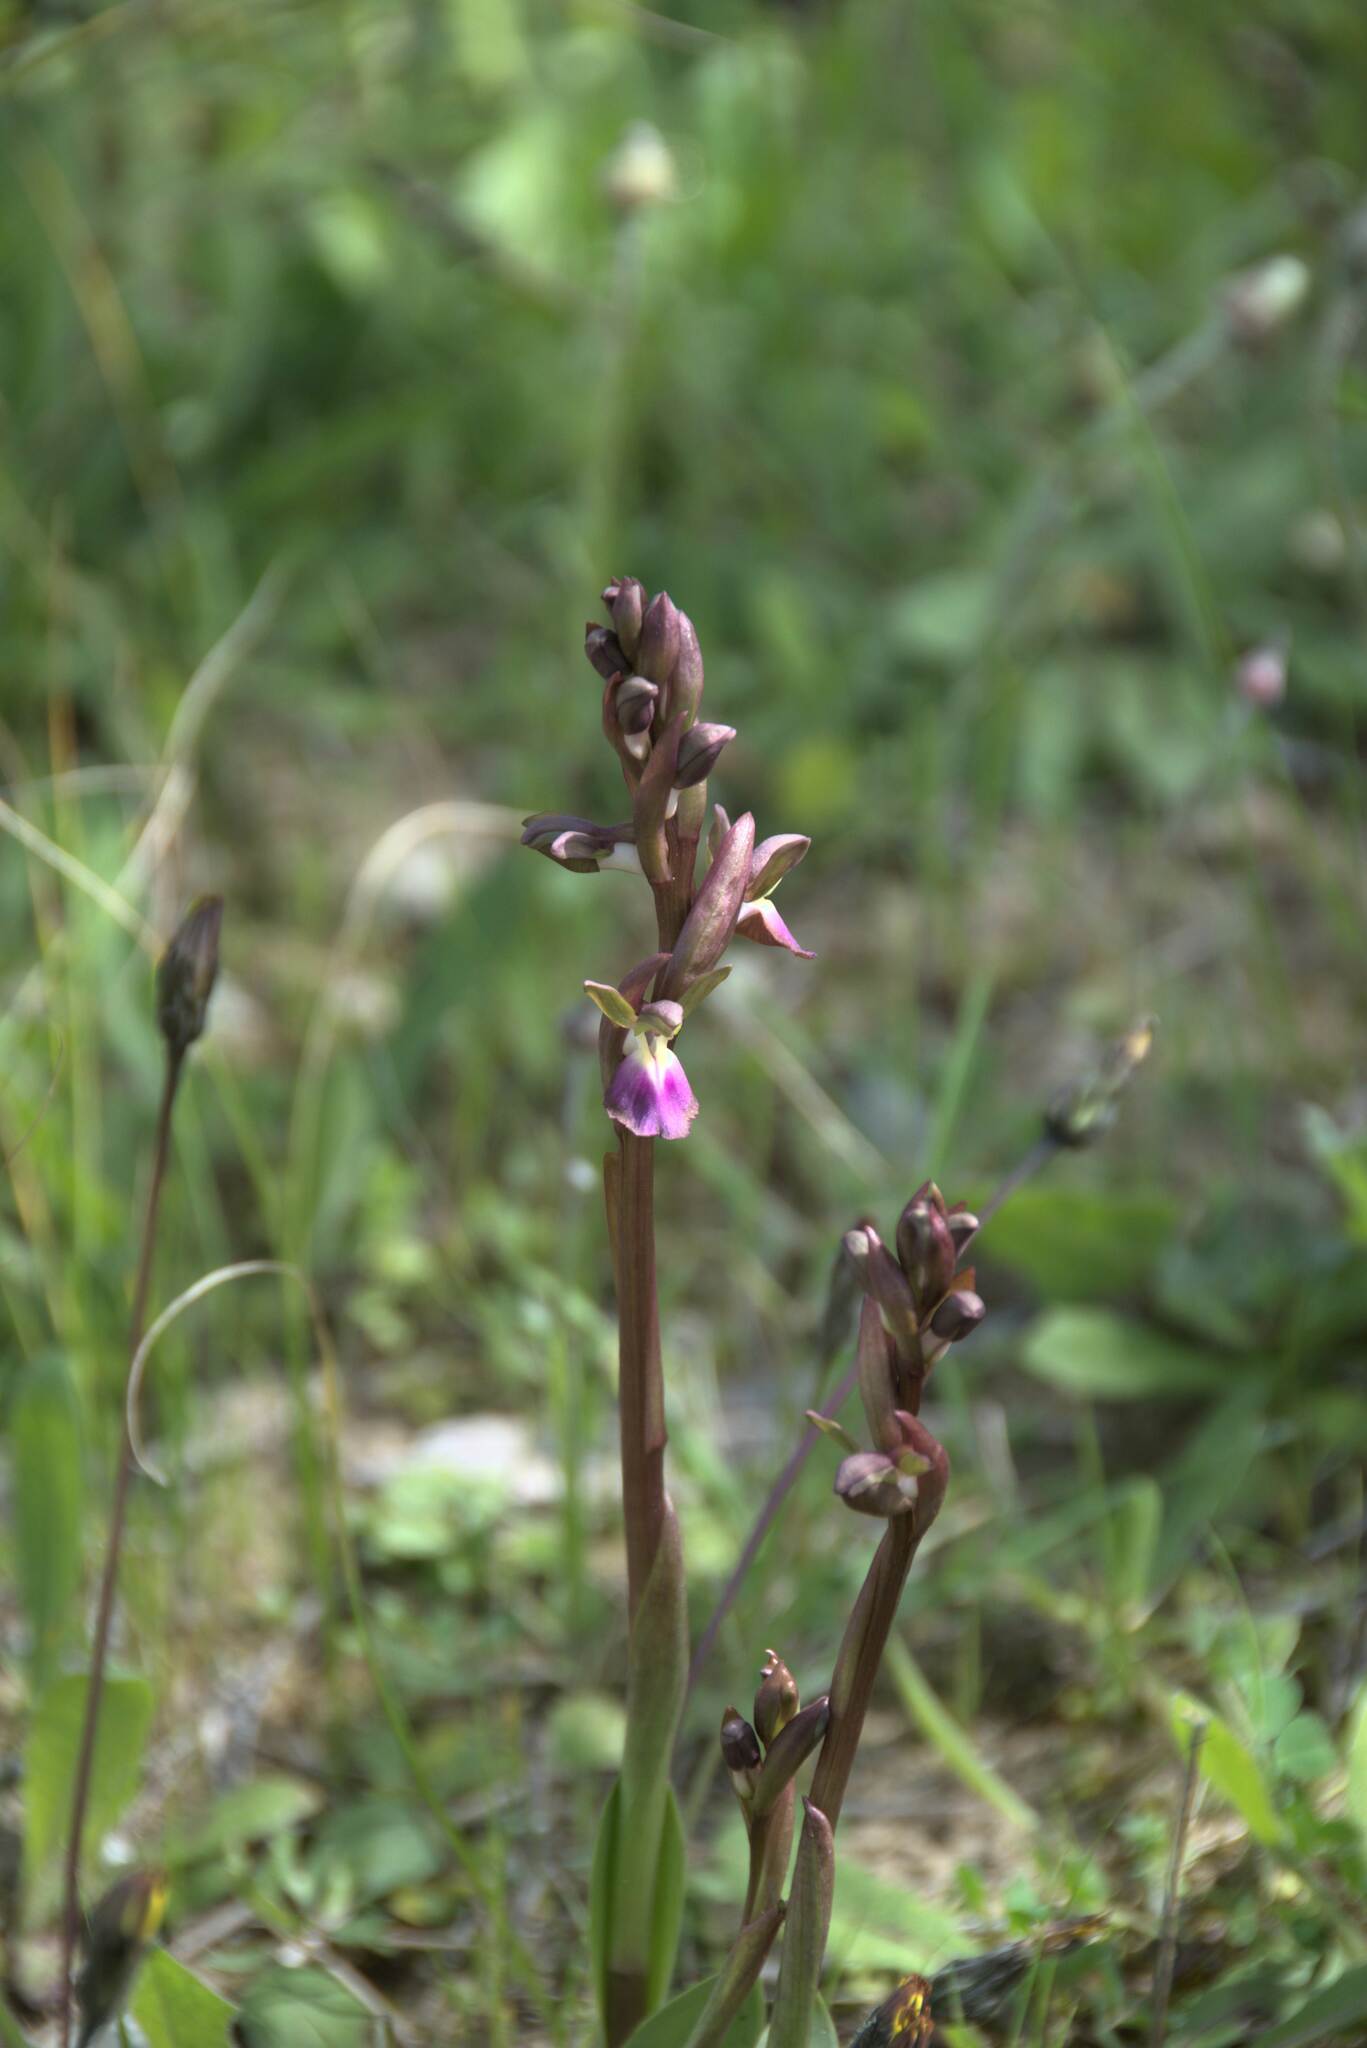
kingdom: Plantae
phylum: Tracheophyta
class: Liliopsida
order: Asparagales
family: Orchidaceae
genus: Anacamptis
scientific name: Anacamptis collina
